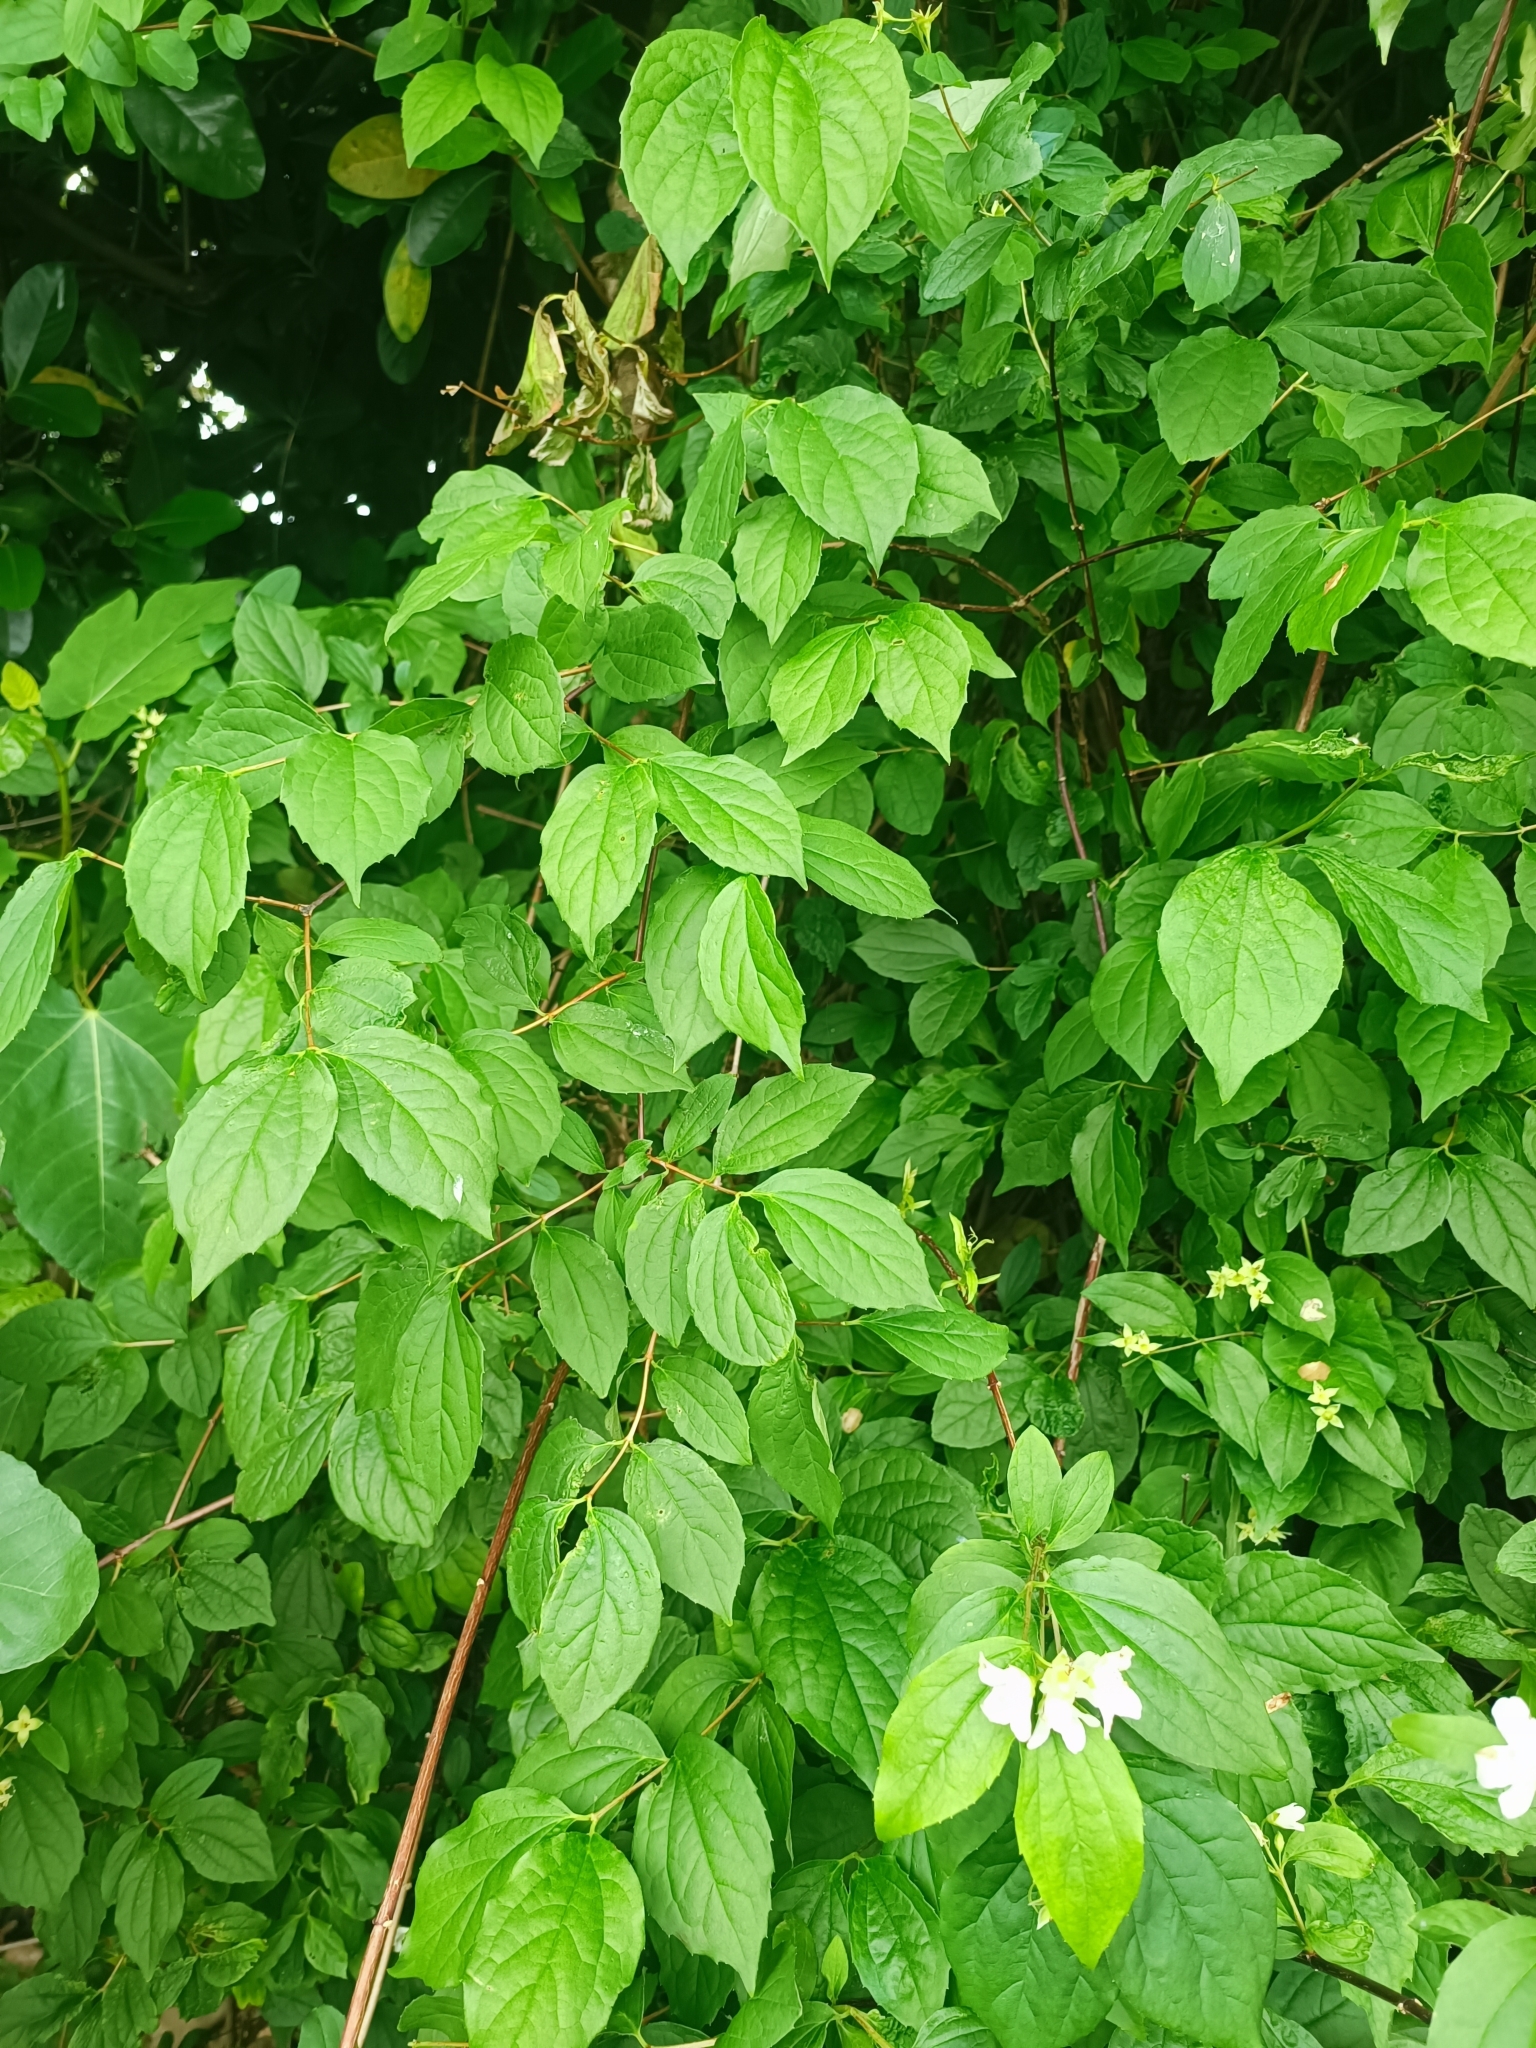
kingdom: Plantae
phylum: Tracheophyta
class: Magnoliopsida
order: Cornales
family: Hydrangeaceae
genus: Philadelphus
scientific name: Philadelphus coronarius
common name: Mock orange
